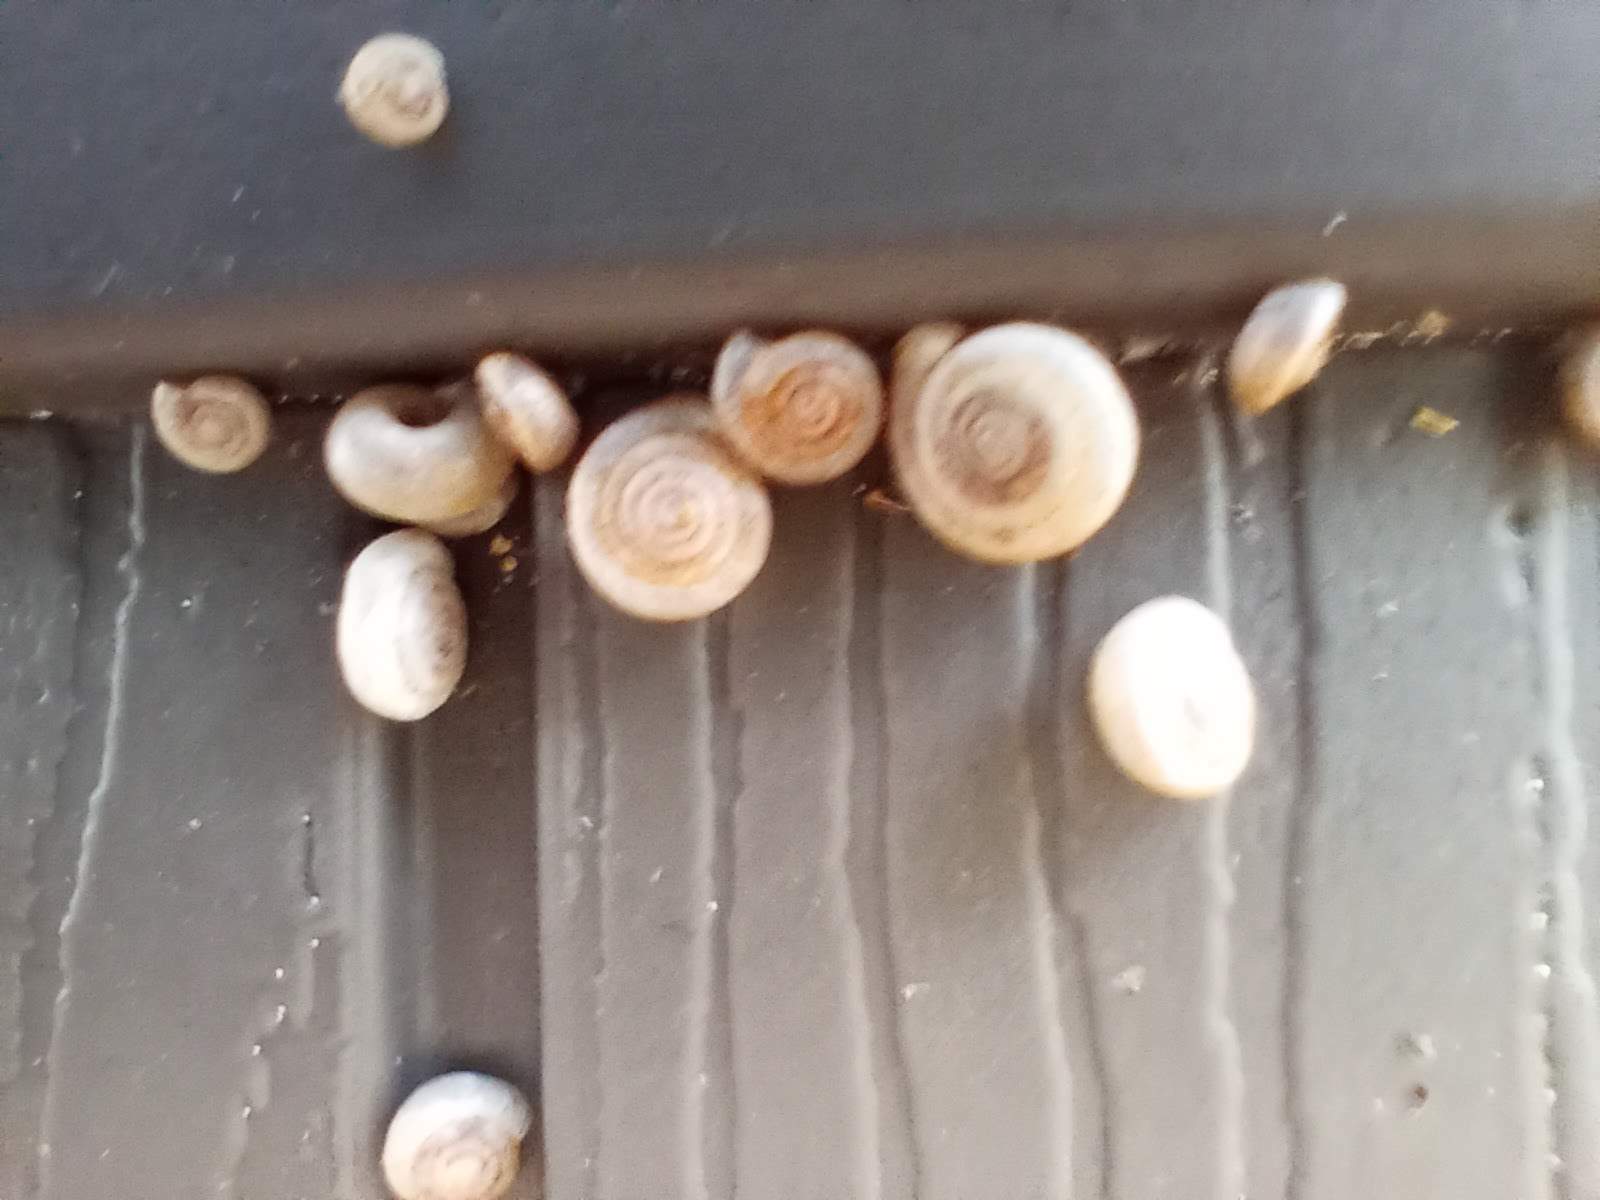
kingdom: Animalia
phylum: Mollusca
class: Gastropoda
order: Stylommatophora
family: Polygyridae
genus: Polygyra
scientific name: Polygyra cereolus
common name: Southern flatcone snail
